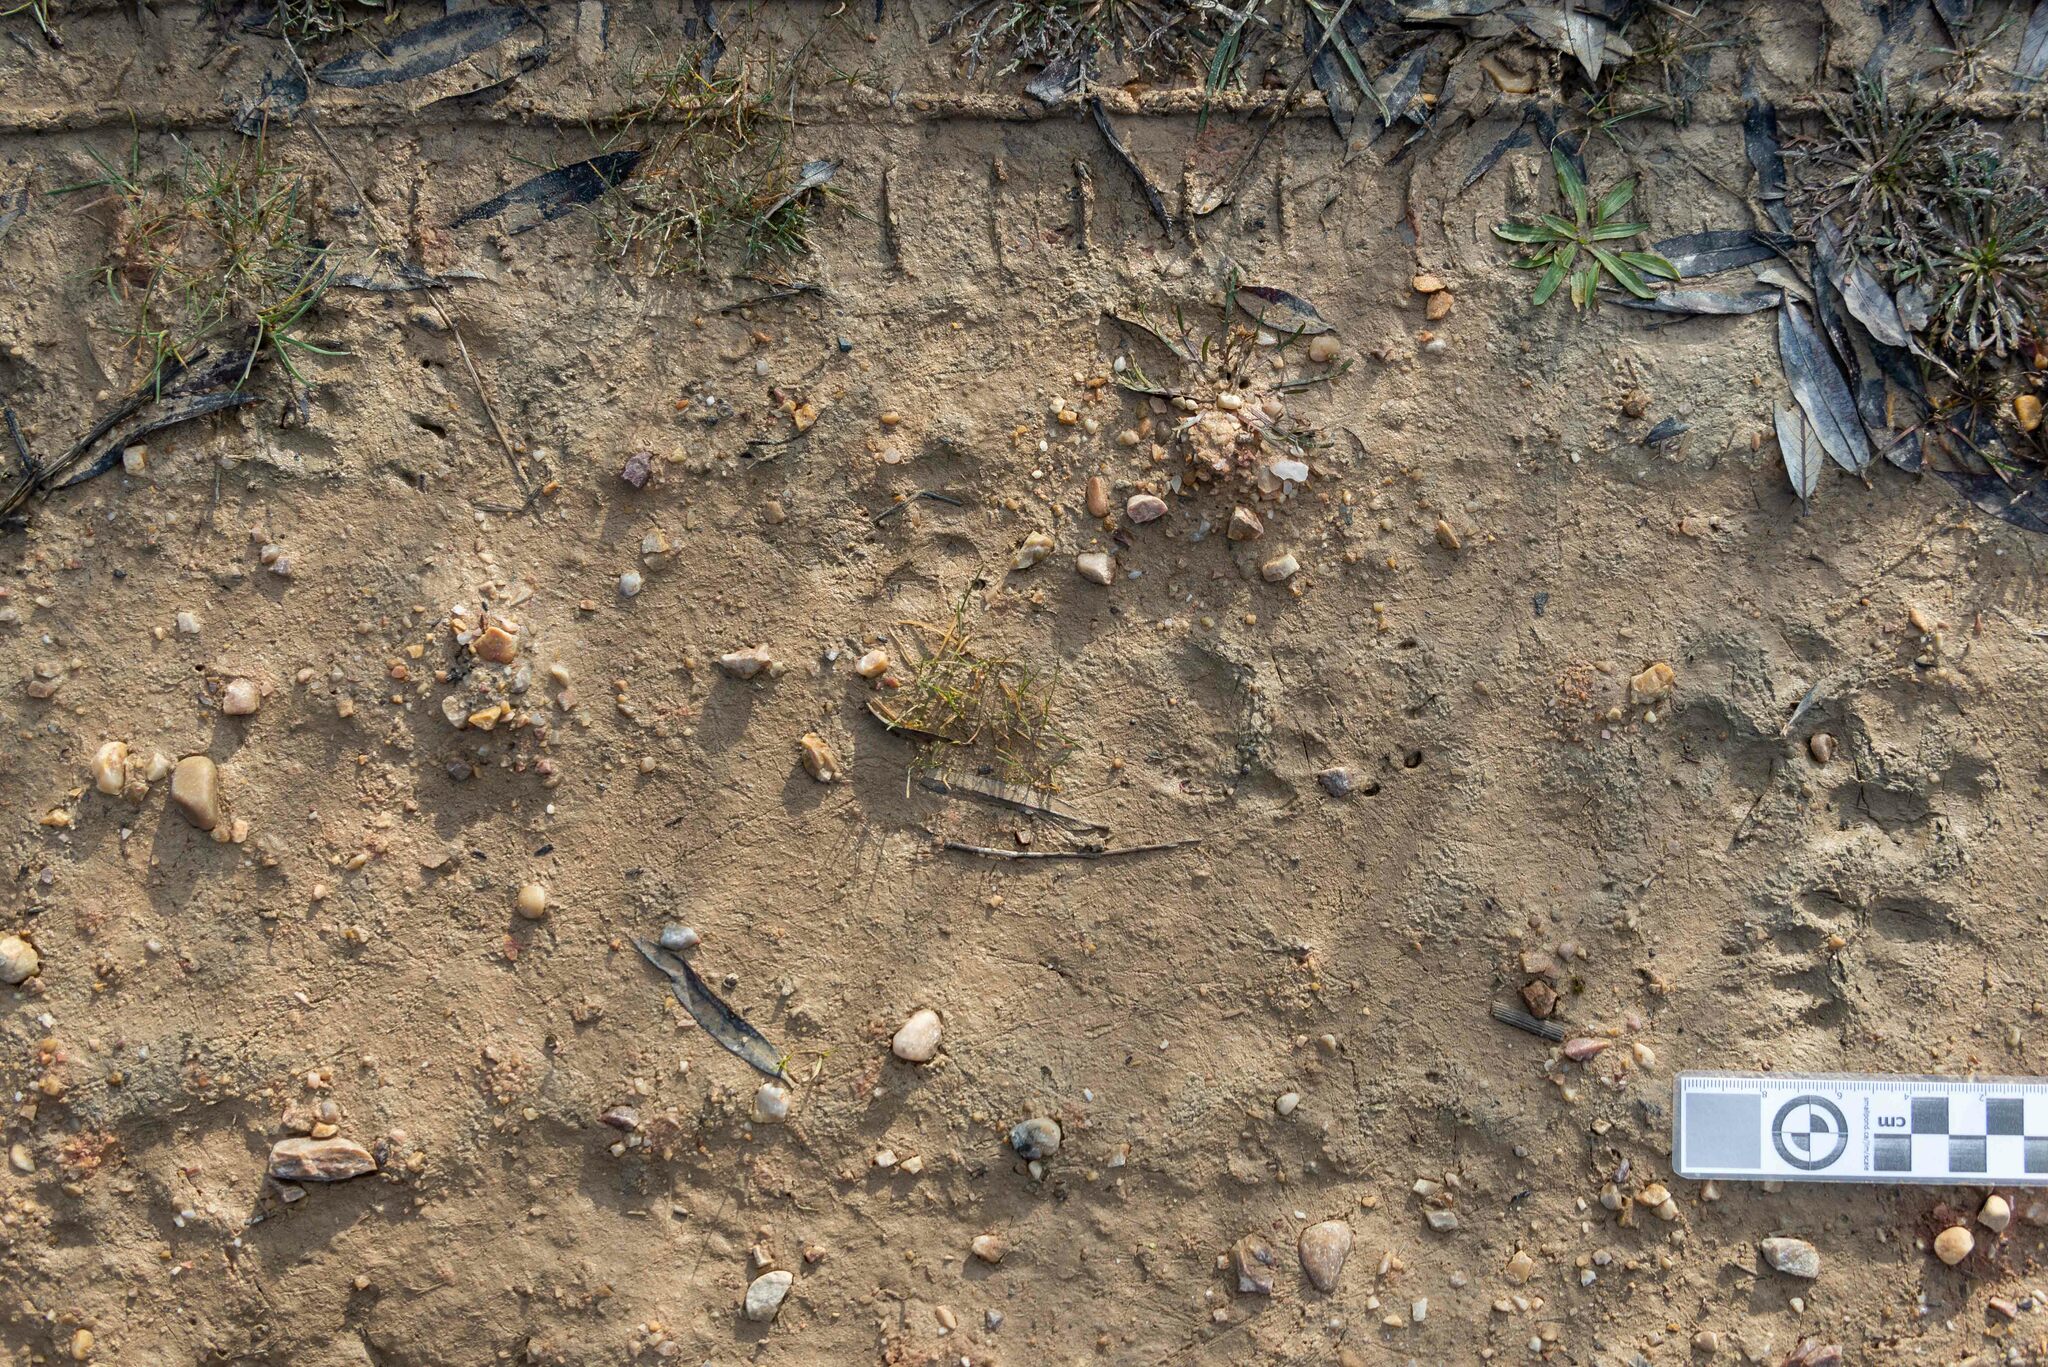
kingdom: Animalia
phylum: Chordata
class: Mammalia
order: Carnivora
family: Mustelidae
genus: Meles
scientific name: Meles meles
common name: Eurasian badger
